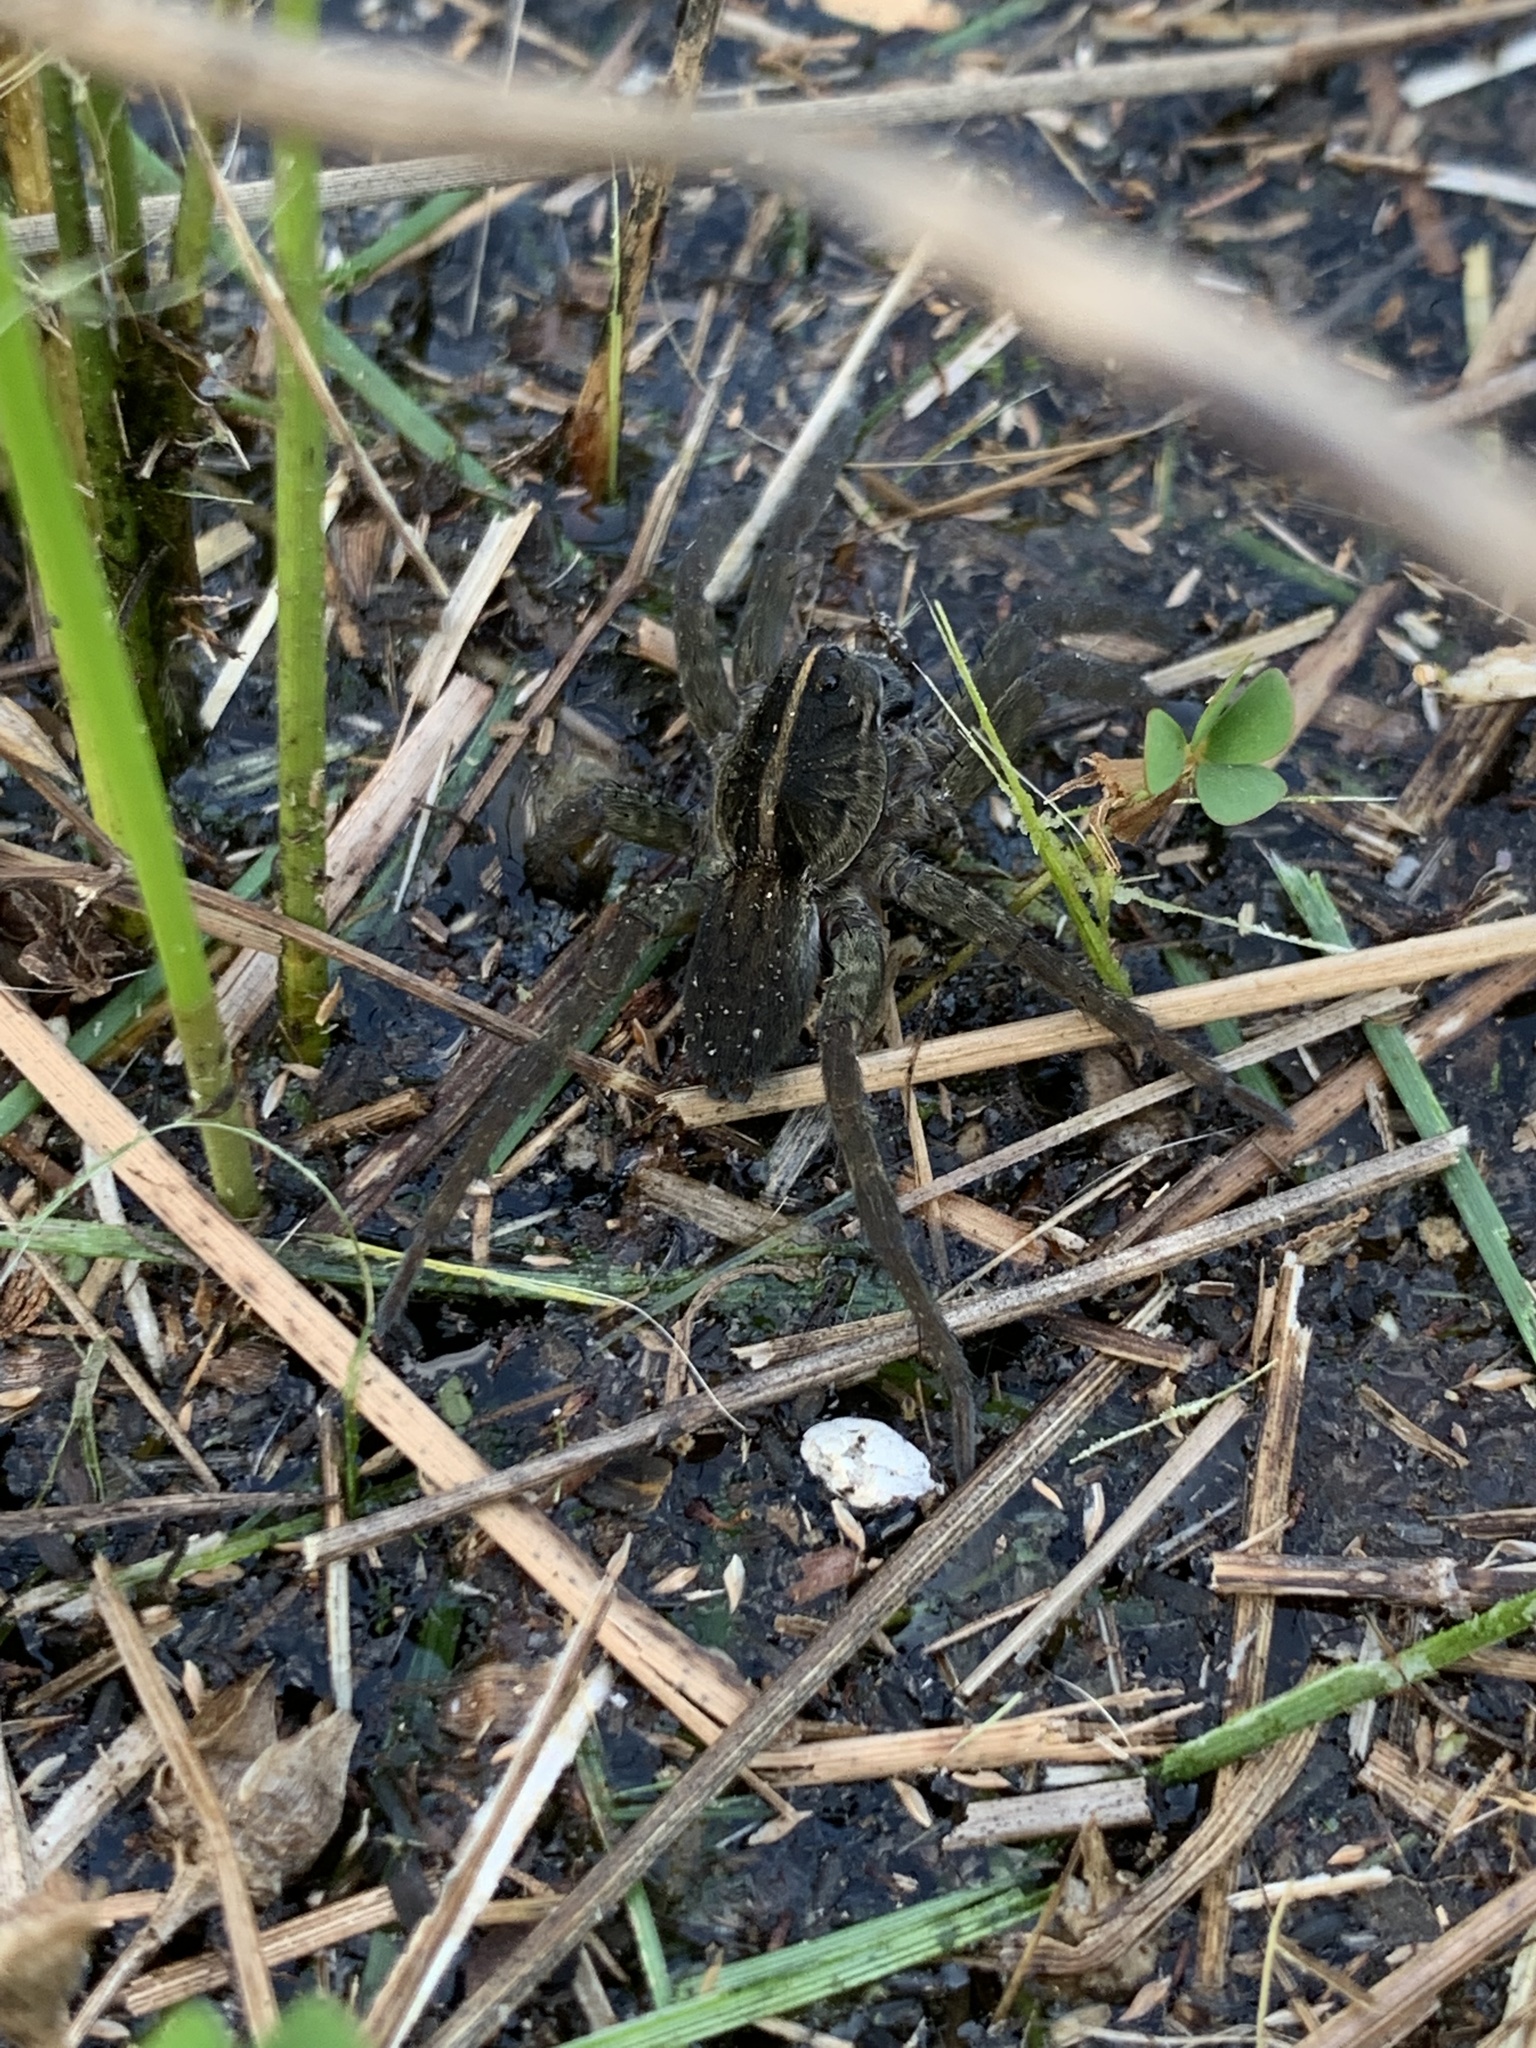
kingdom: Animalia
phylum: Arthropoda
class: Arachnida
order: Araneae
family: Lycosidae
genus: Tigrosa
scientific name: Tigrosa helluo
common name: Wetland giant wolf spider
